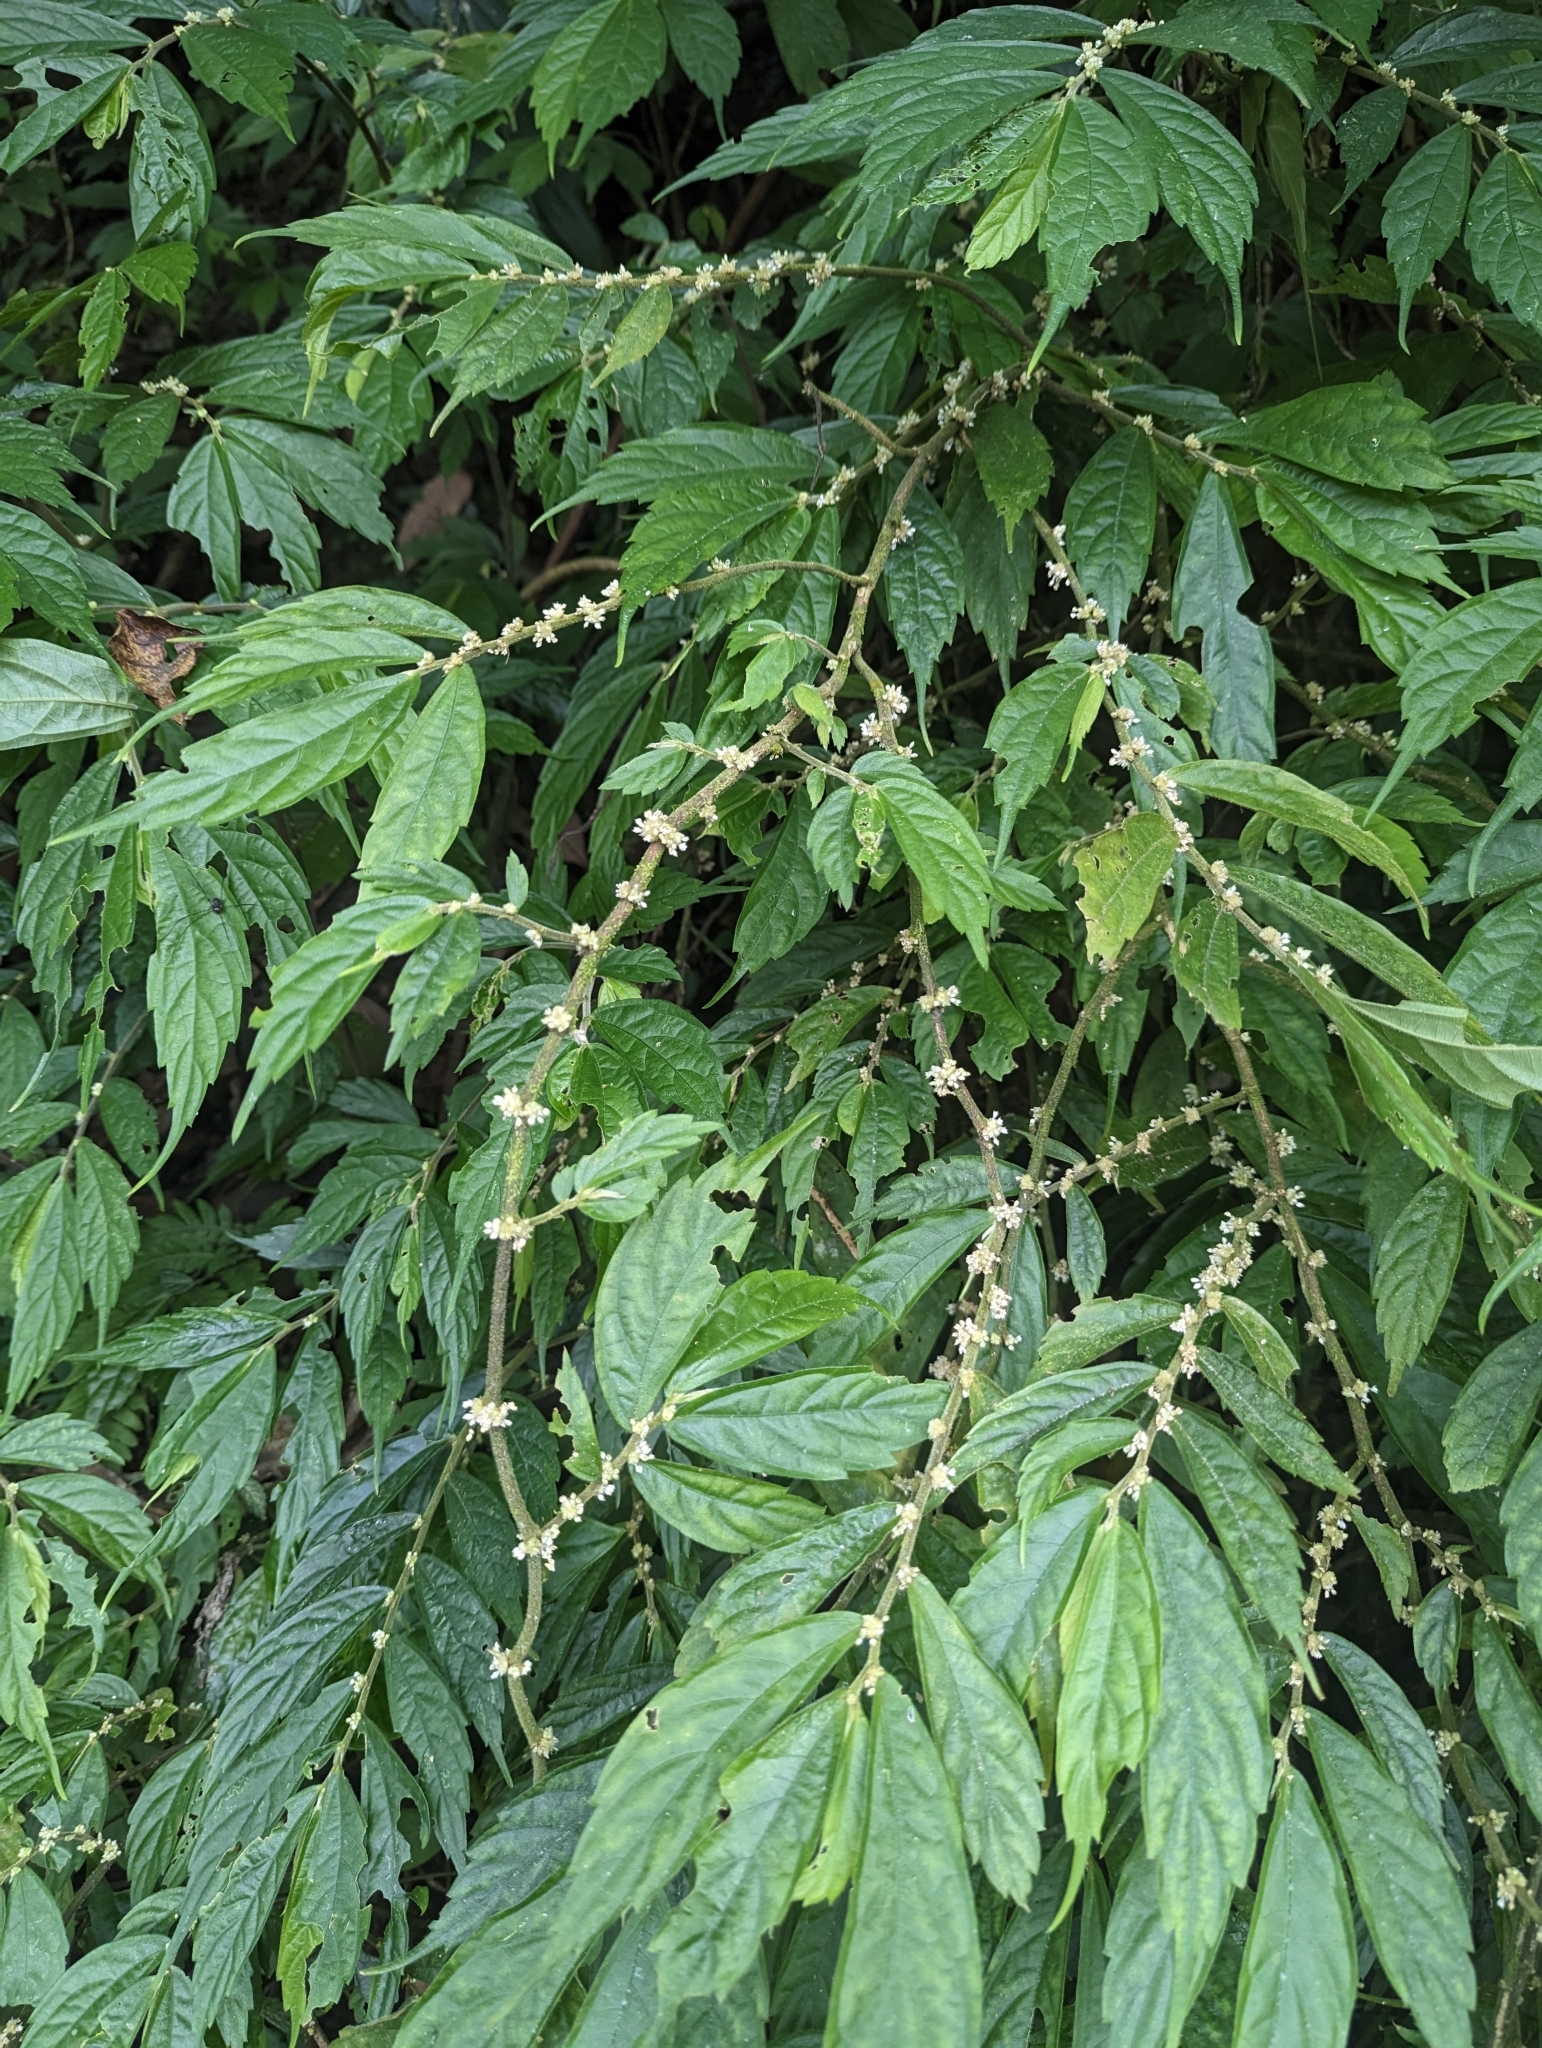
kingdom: Plantae
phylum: Tracheophyta
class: Magnoliopsida
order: Rosales
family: Urticaceae
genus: Elatostema
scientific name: Elatostema lineolatum
